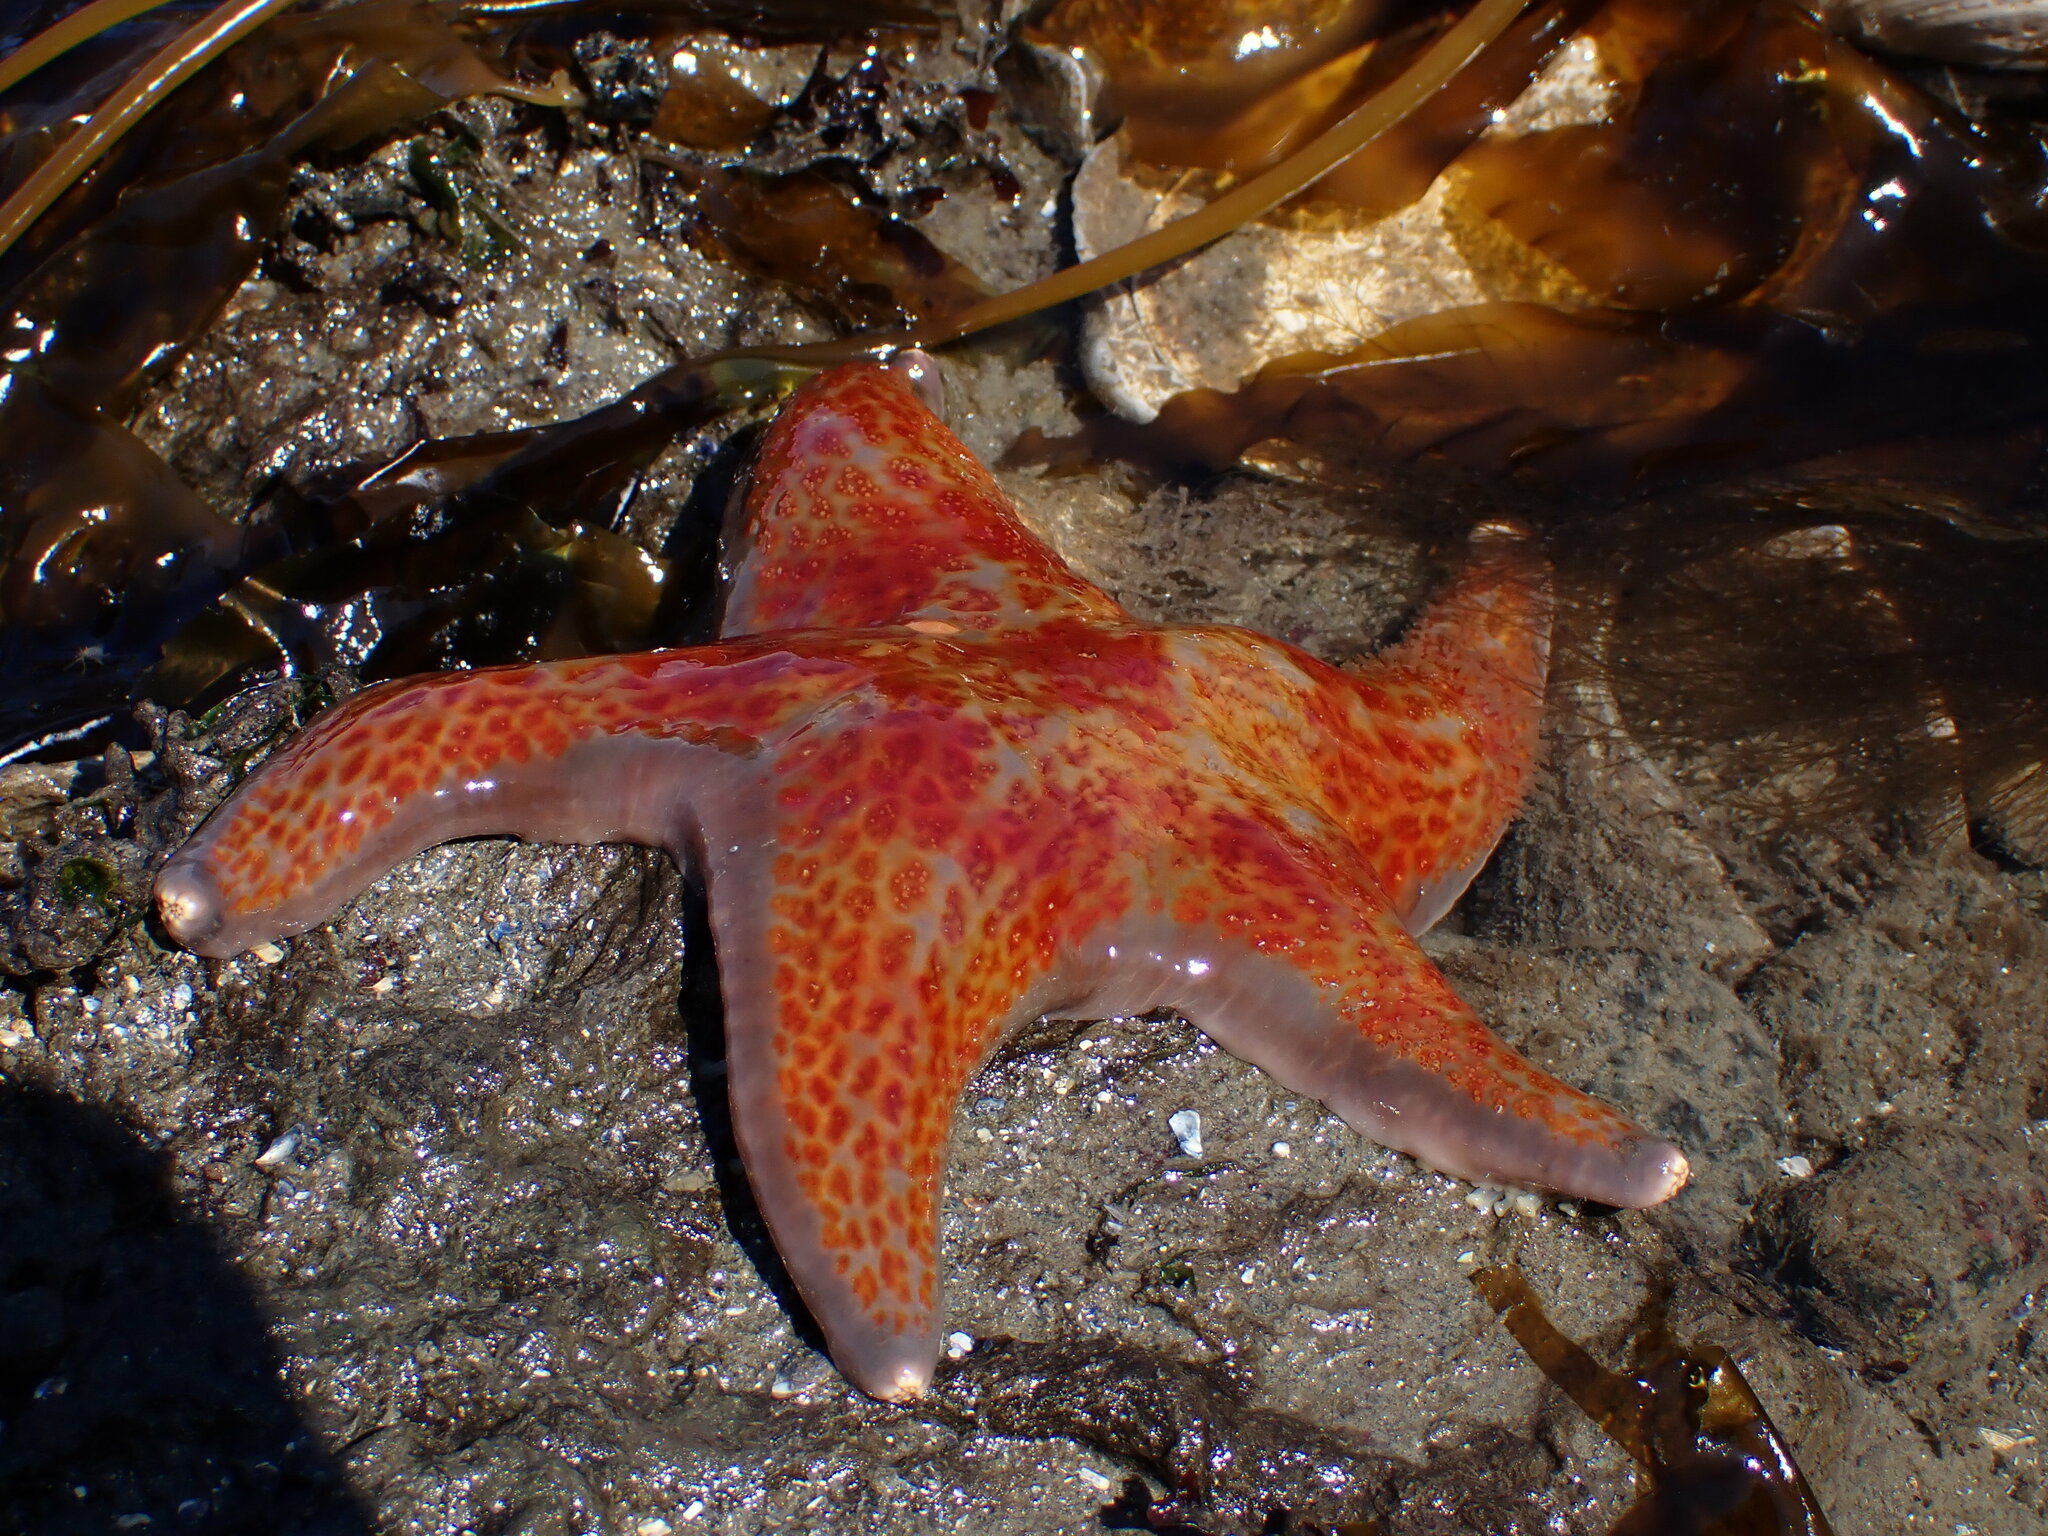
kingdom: Animalia
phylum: Echinodermata
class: Asteroidea
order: Valvatida
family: Asteropseidae
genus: Dermasterias
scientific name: Dermasterias imbricata
